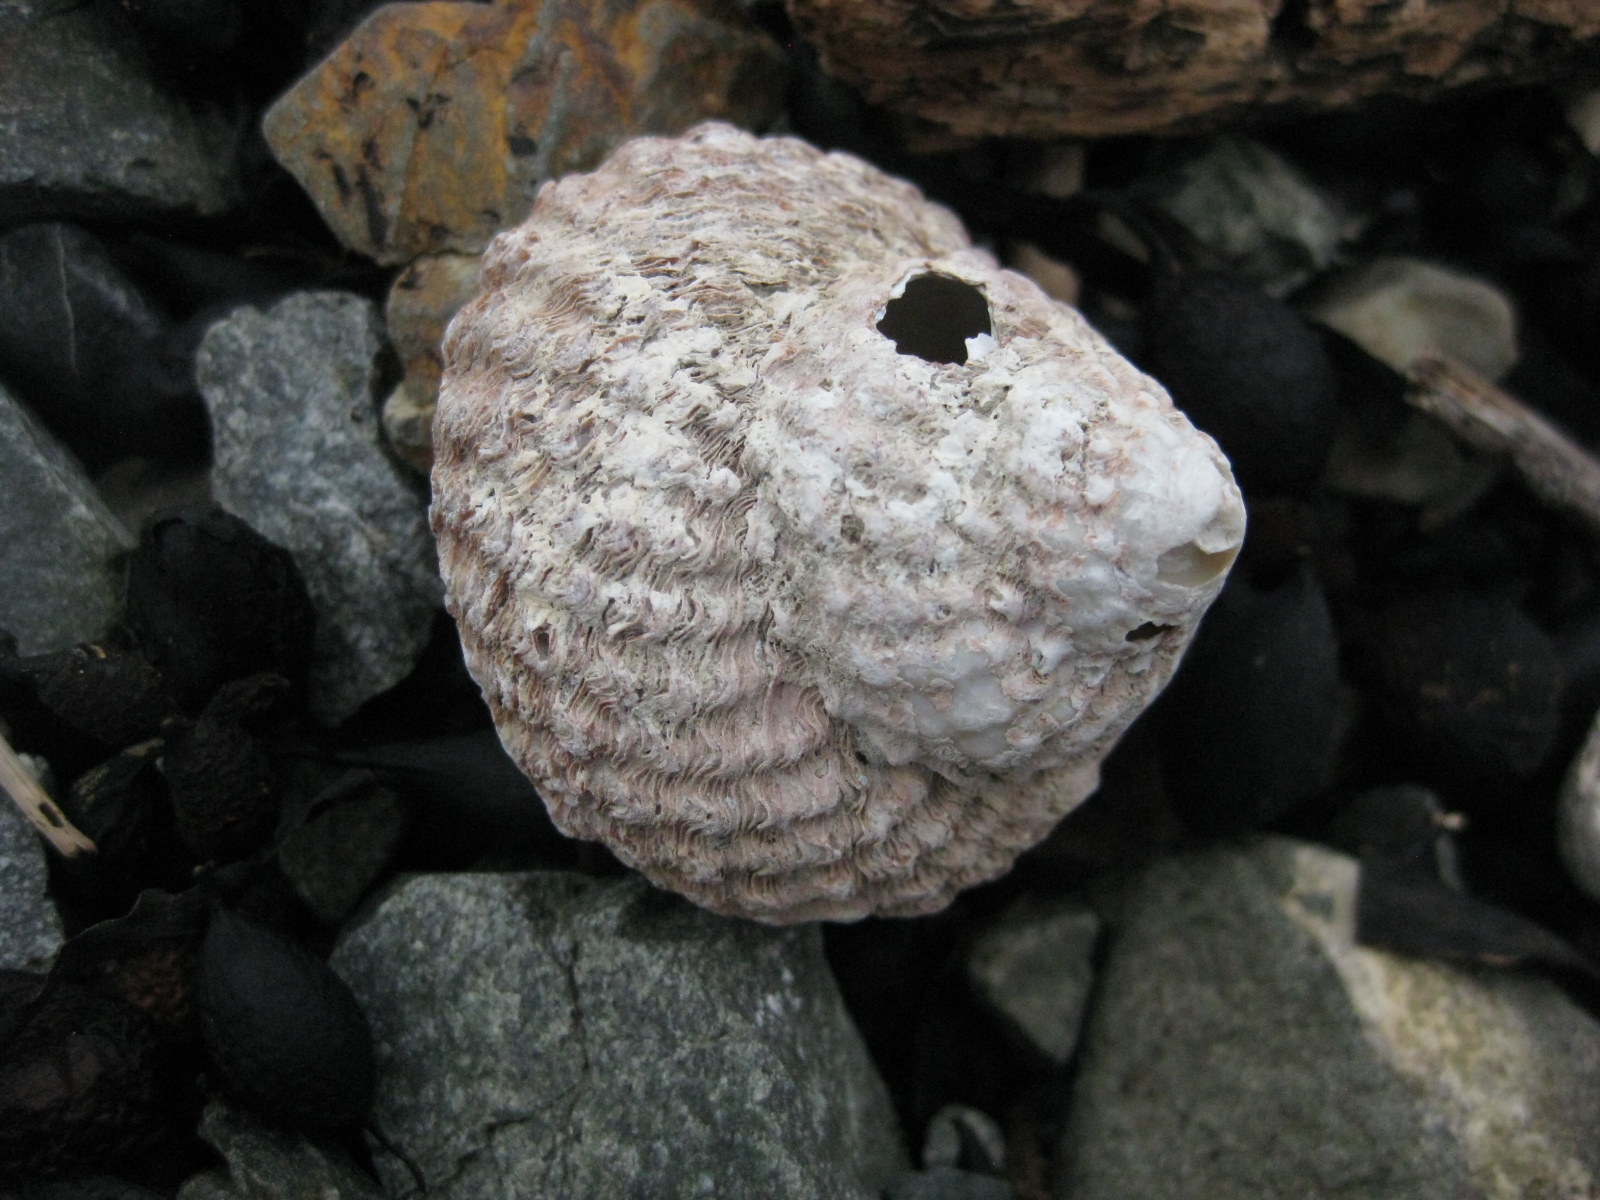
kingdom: Animalia
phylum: Mollusca
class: Gastropoda
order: Trochida
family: Turbinidae
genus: Cookia
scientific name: Cookia sulcata
